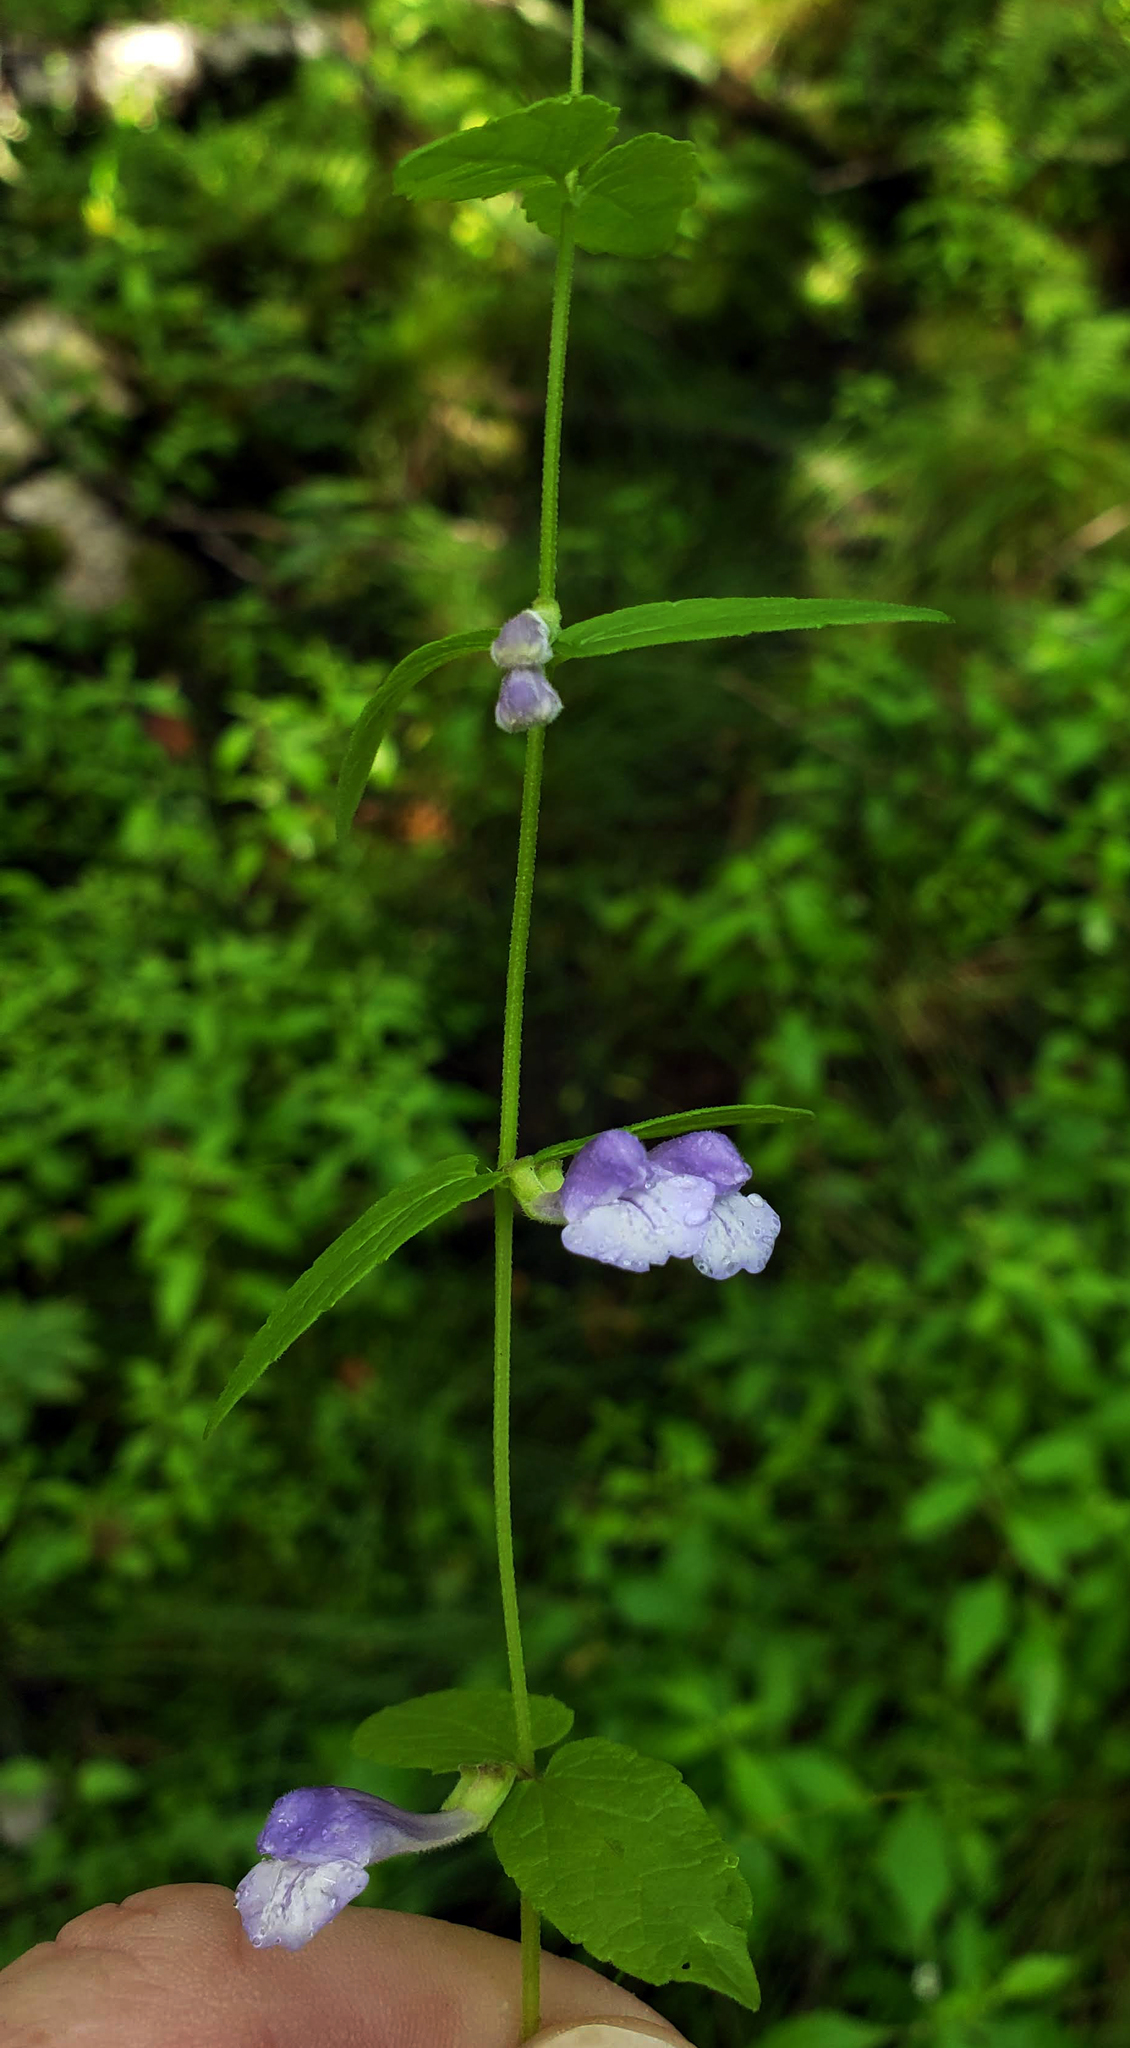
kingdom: Plantae
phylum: Tracheophyta
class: Magnoliopsida
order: Lamiales
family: Lamiaceae
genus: Scutellaria
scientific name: Scutellaria galericulata
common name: Skullcap
